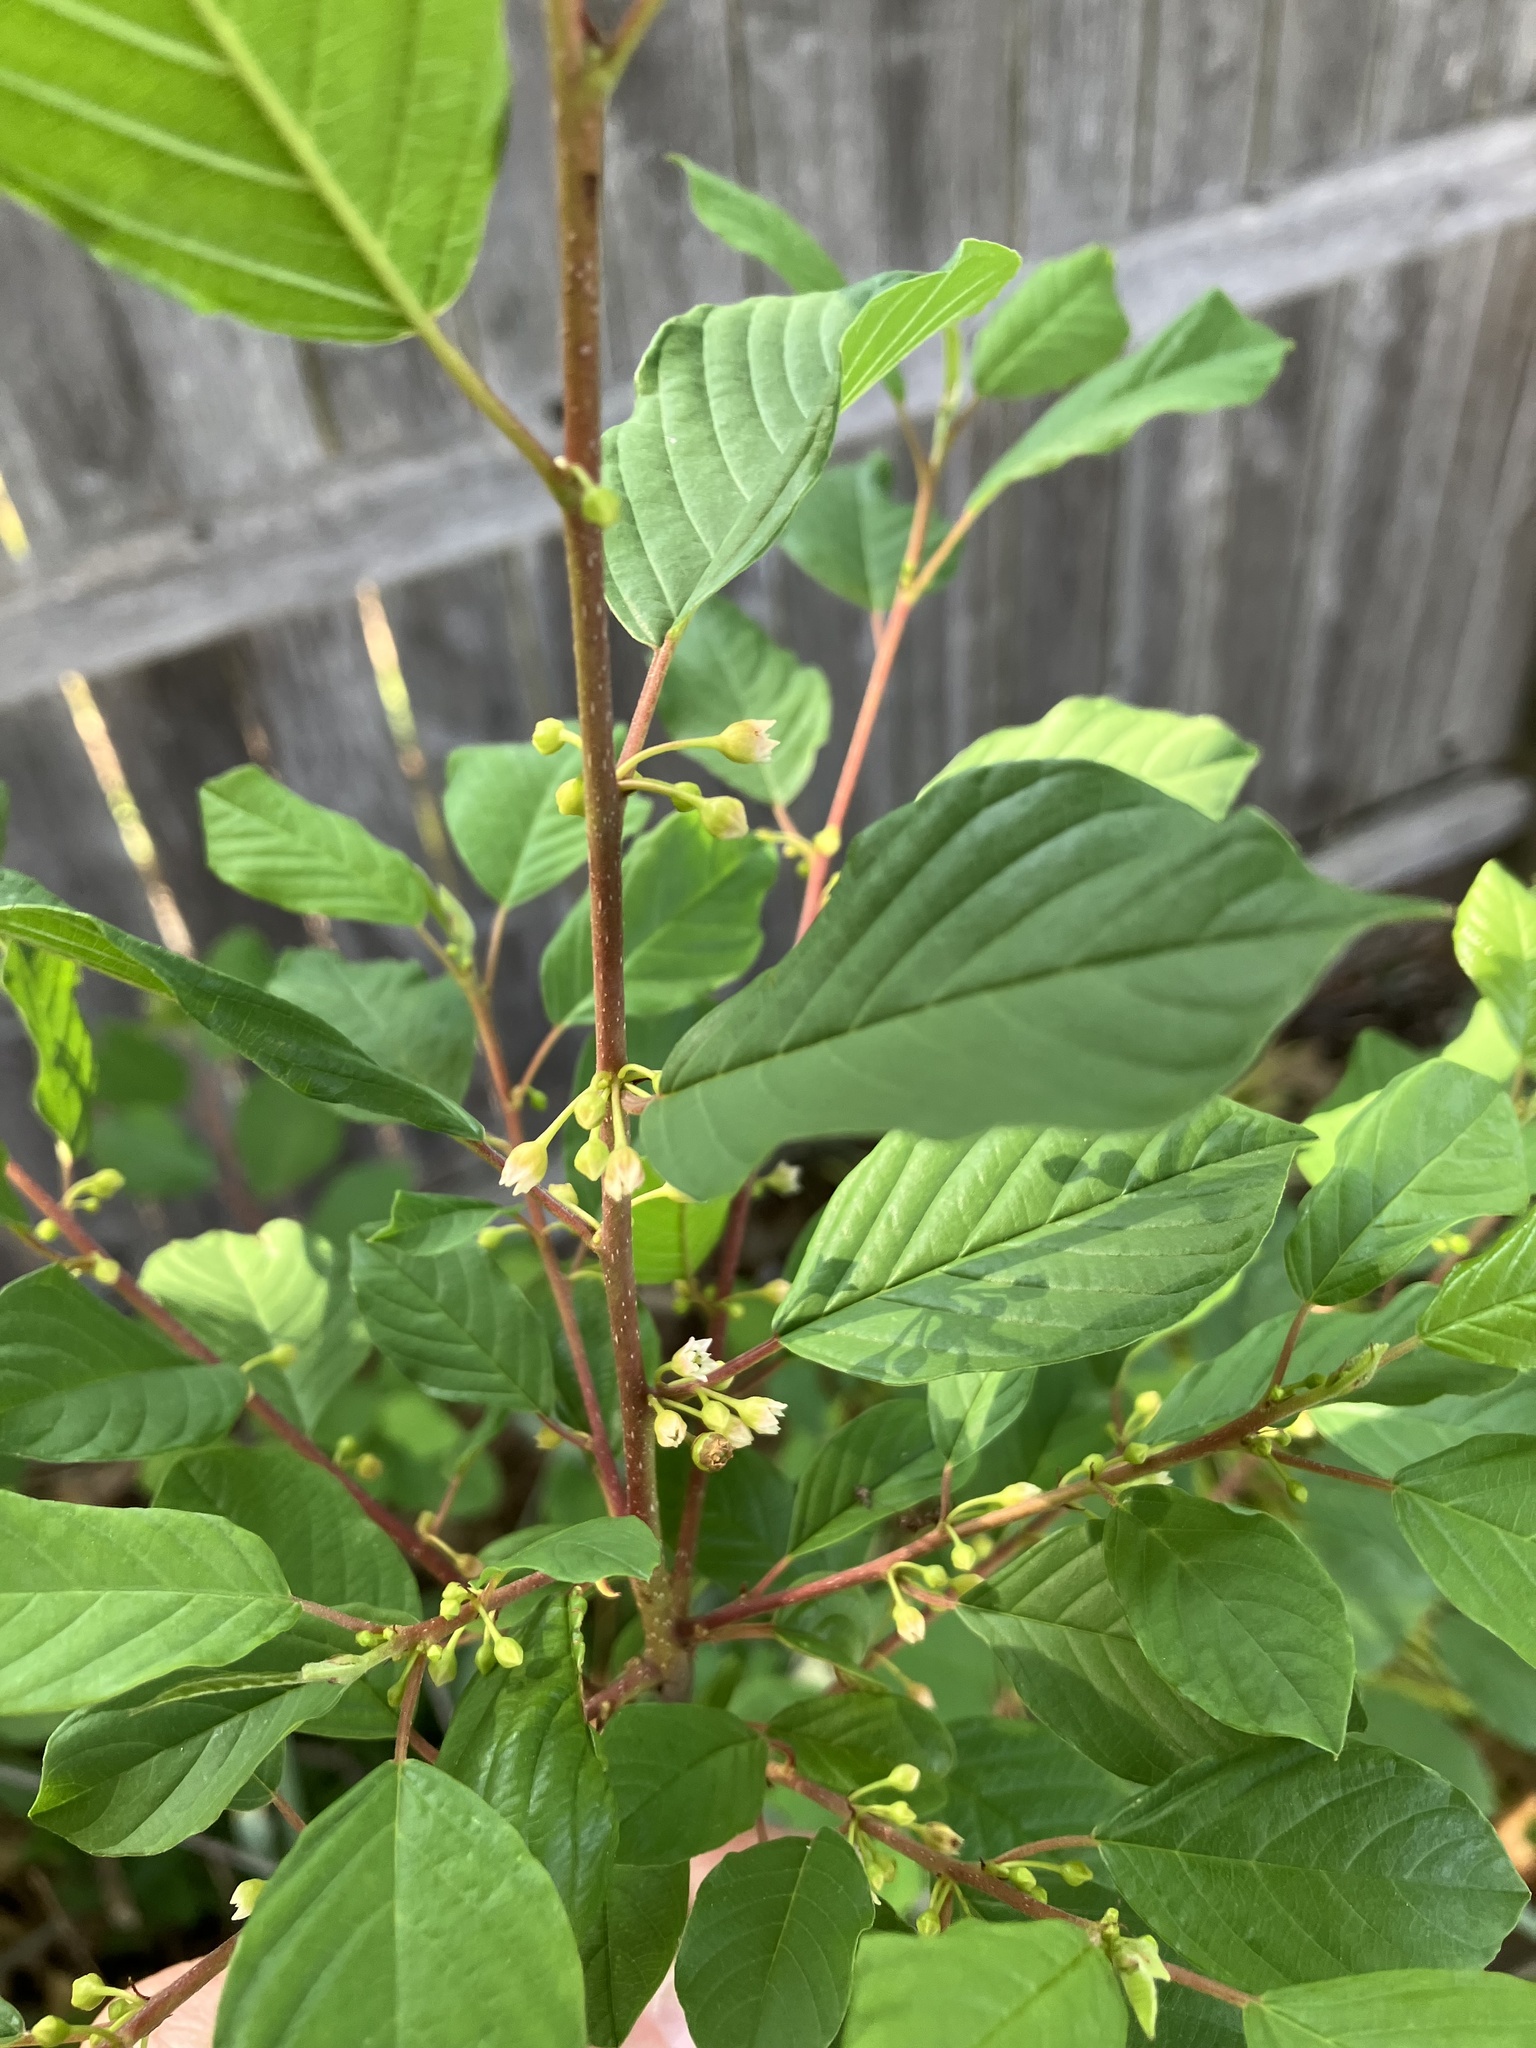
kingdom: Plantae
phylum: Tracheophyta
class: Magnoliopsida
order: Rosales
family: Rhamnaceae
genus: Frangula
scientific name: Frangula alnus
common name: Alder buckthorn
